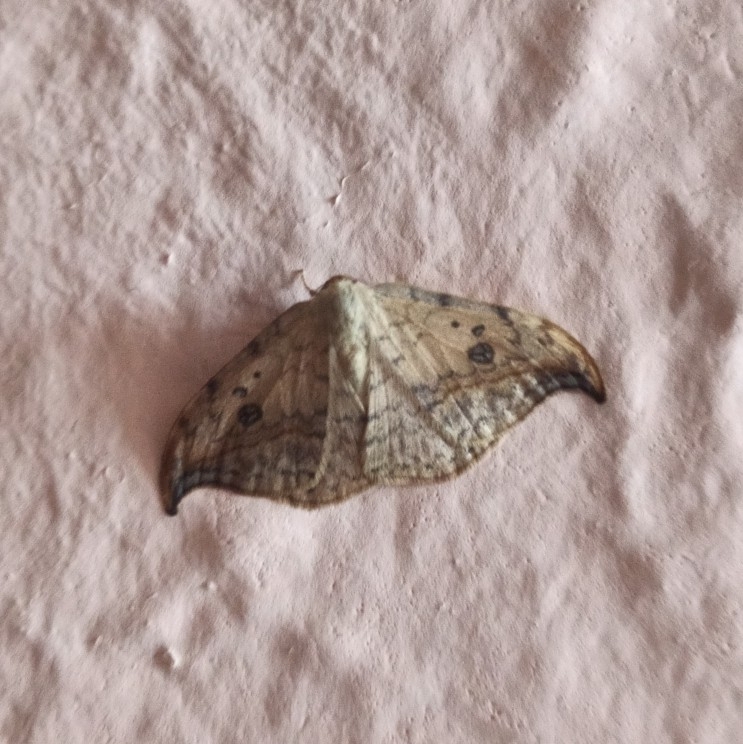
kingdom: Animalia
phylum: Arthropoda
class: Insecta
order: Lepidoptera
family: Drepanidae
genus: Drepana
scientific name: Drepana falcataria
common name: Pebble hook-tip
